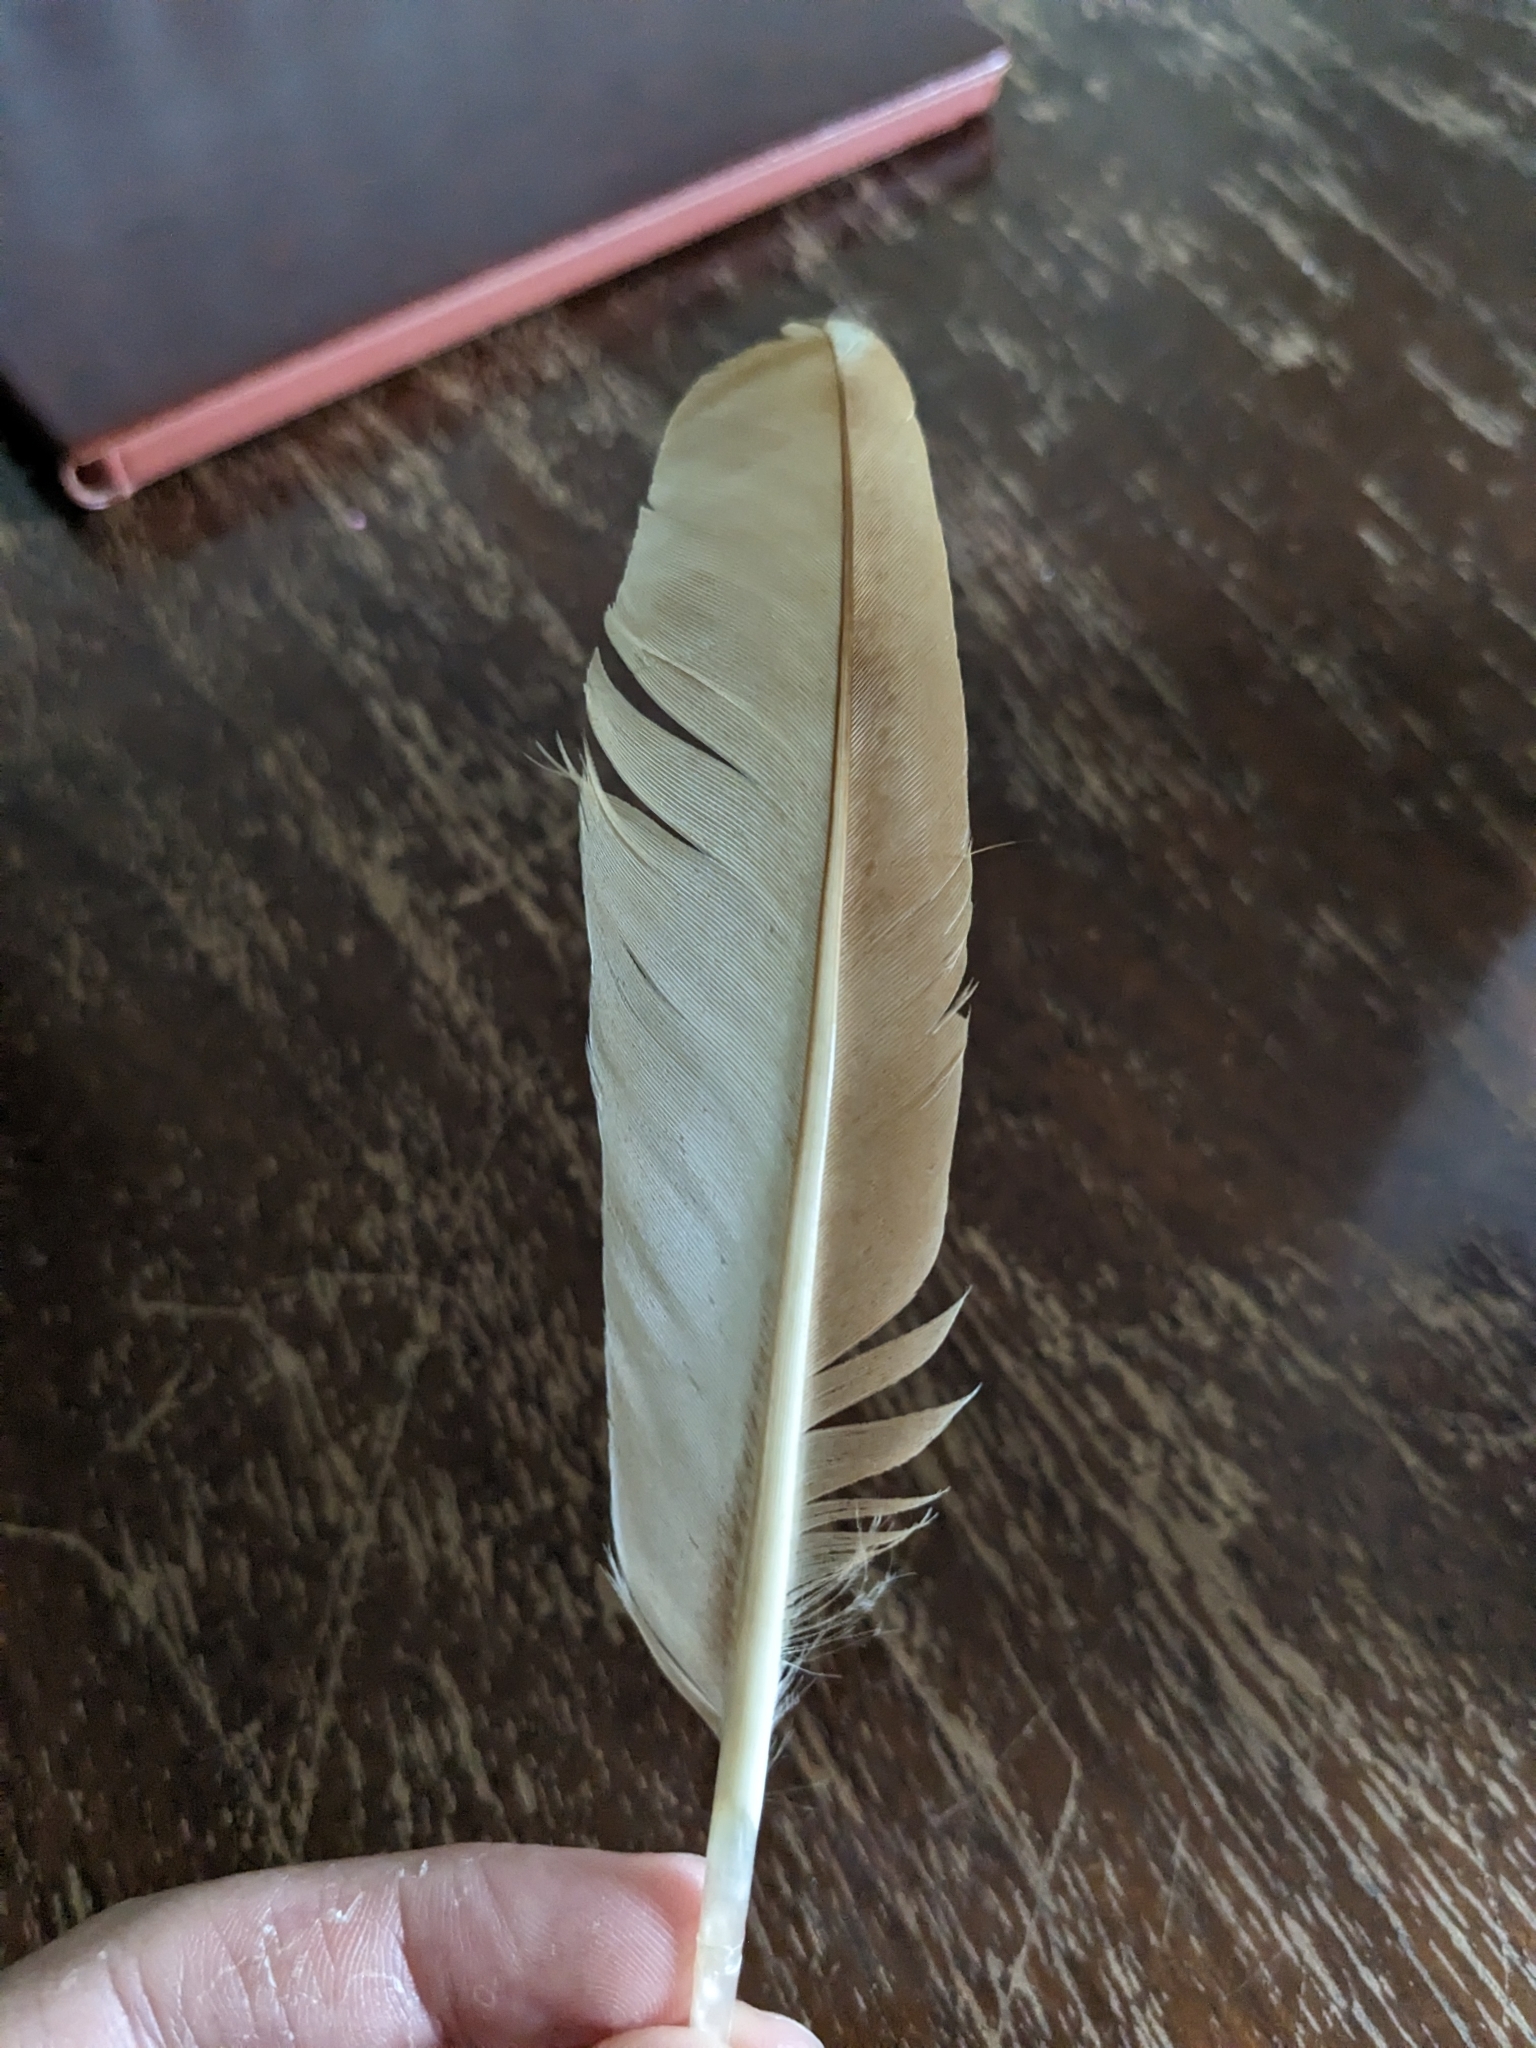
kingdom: Animalia
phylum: Chordata
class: Aves
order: Galliformes
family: Phasianidae
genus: Gallus
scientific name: Gallus gallus
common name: Red junglefowl
